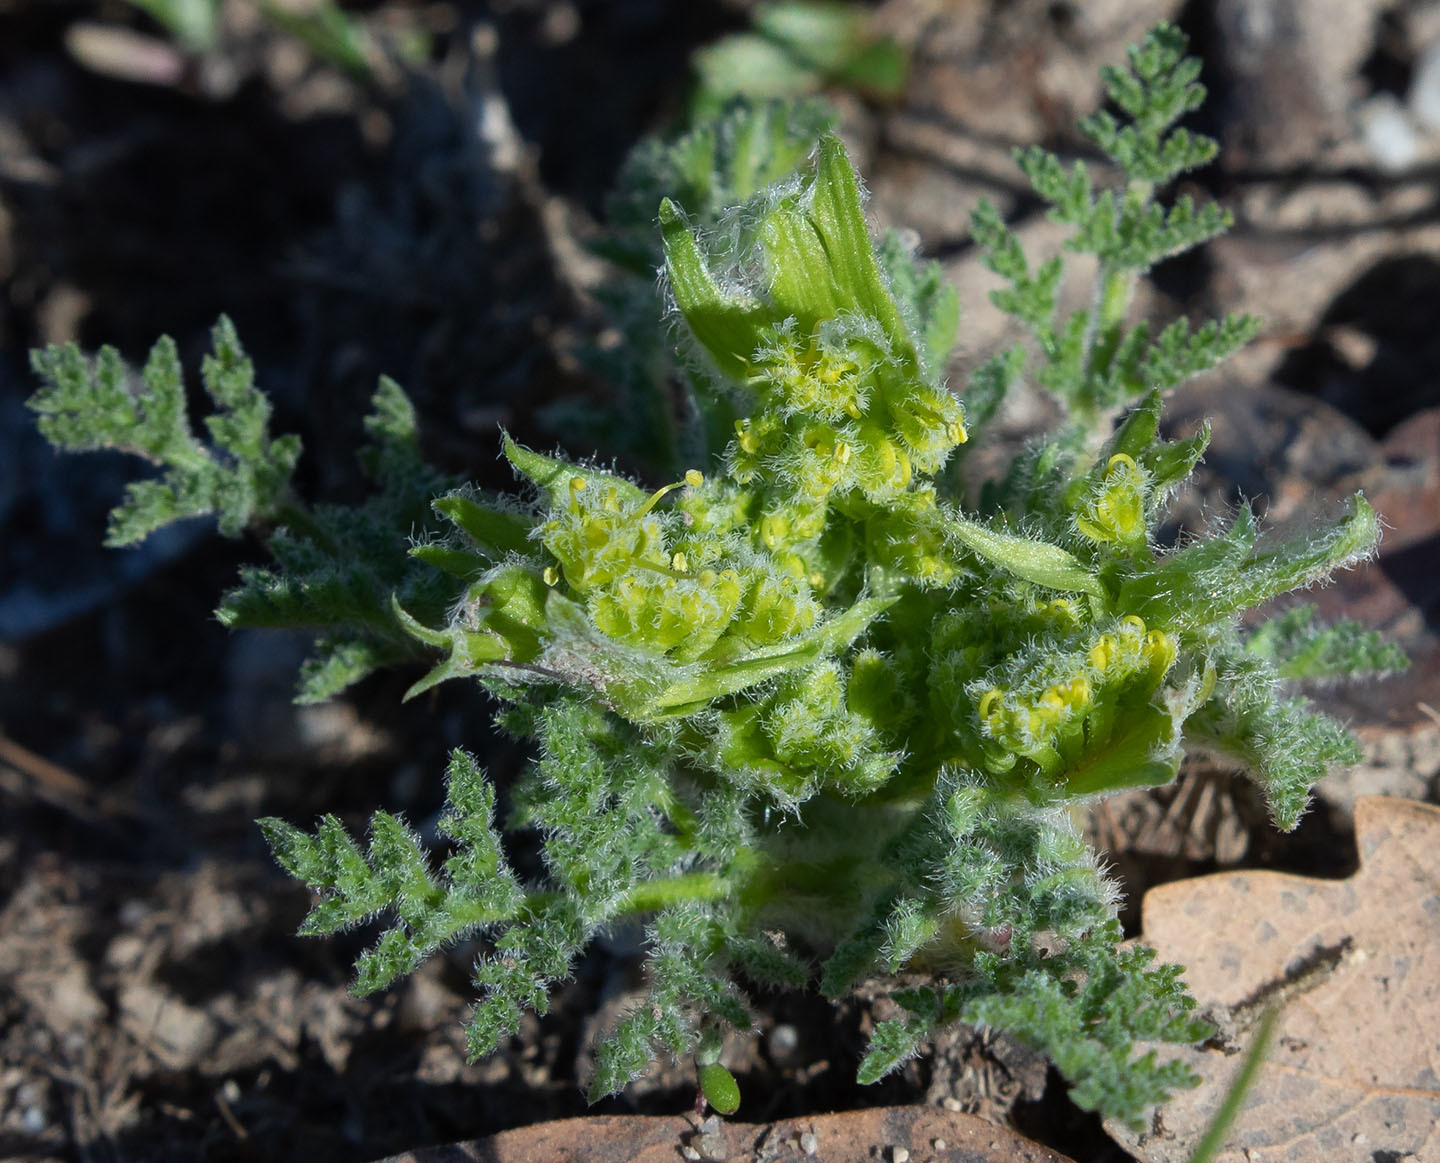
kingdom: Plantae
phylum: Tracheophyta
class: Magnoliopsida
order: Apiales
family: Apiaceae
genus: Lomatium
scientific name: Lomatium dasycarpum
